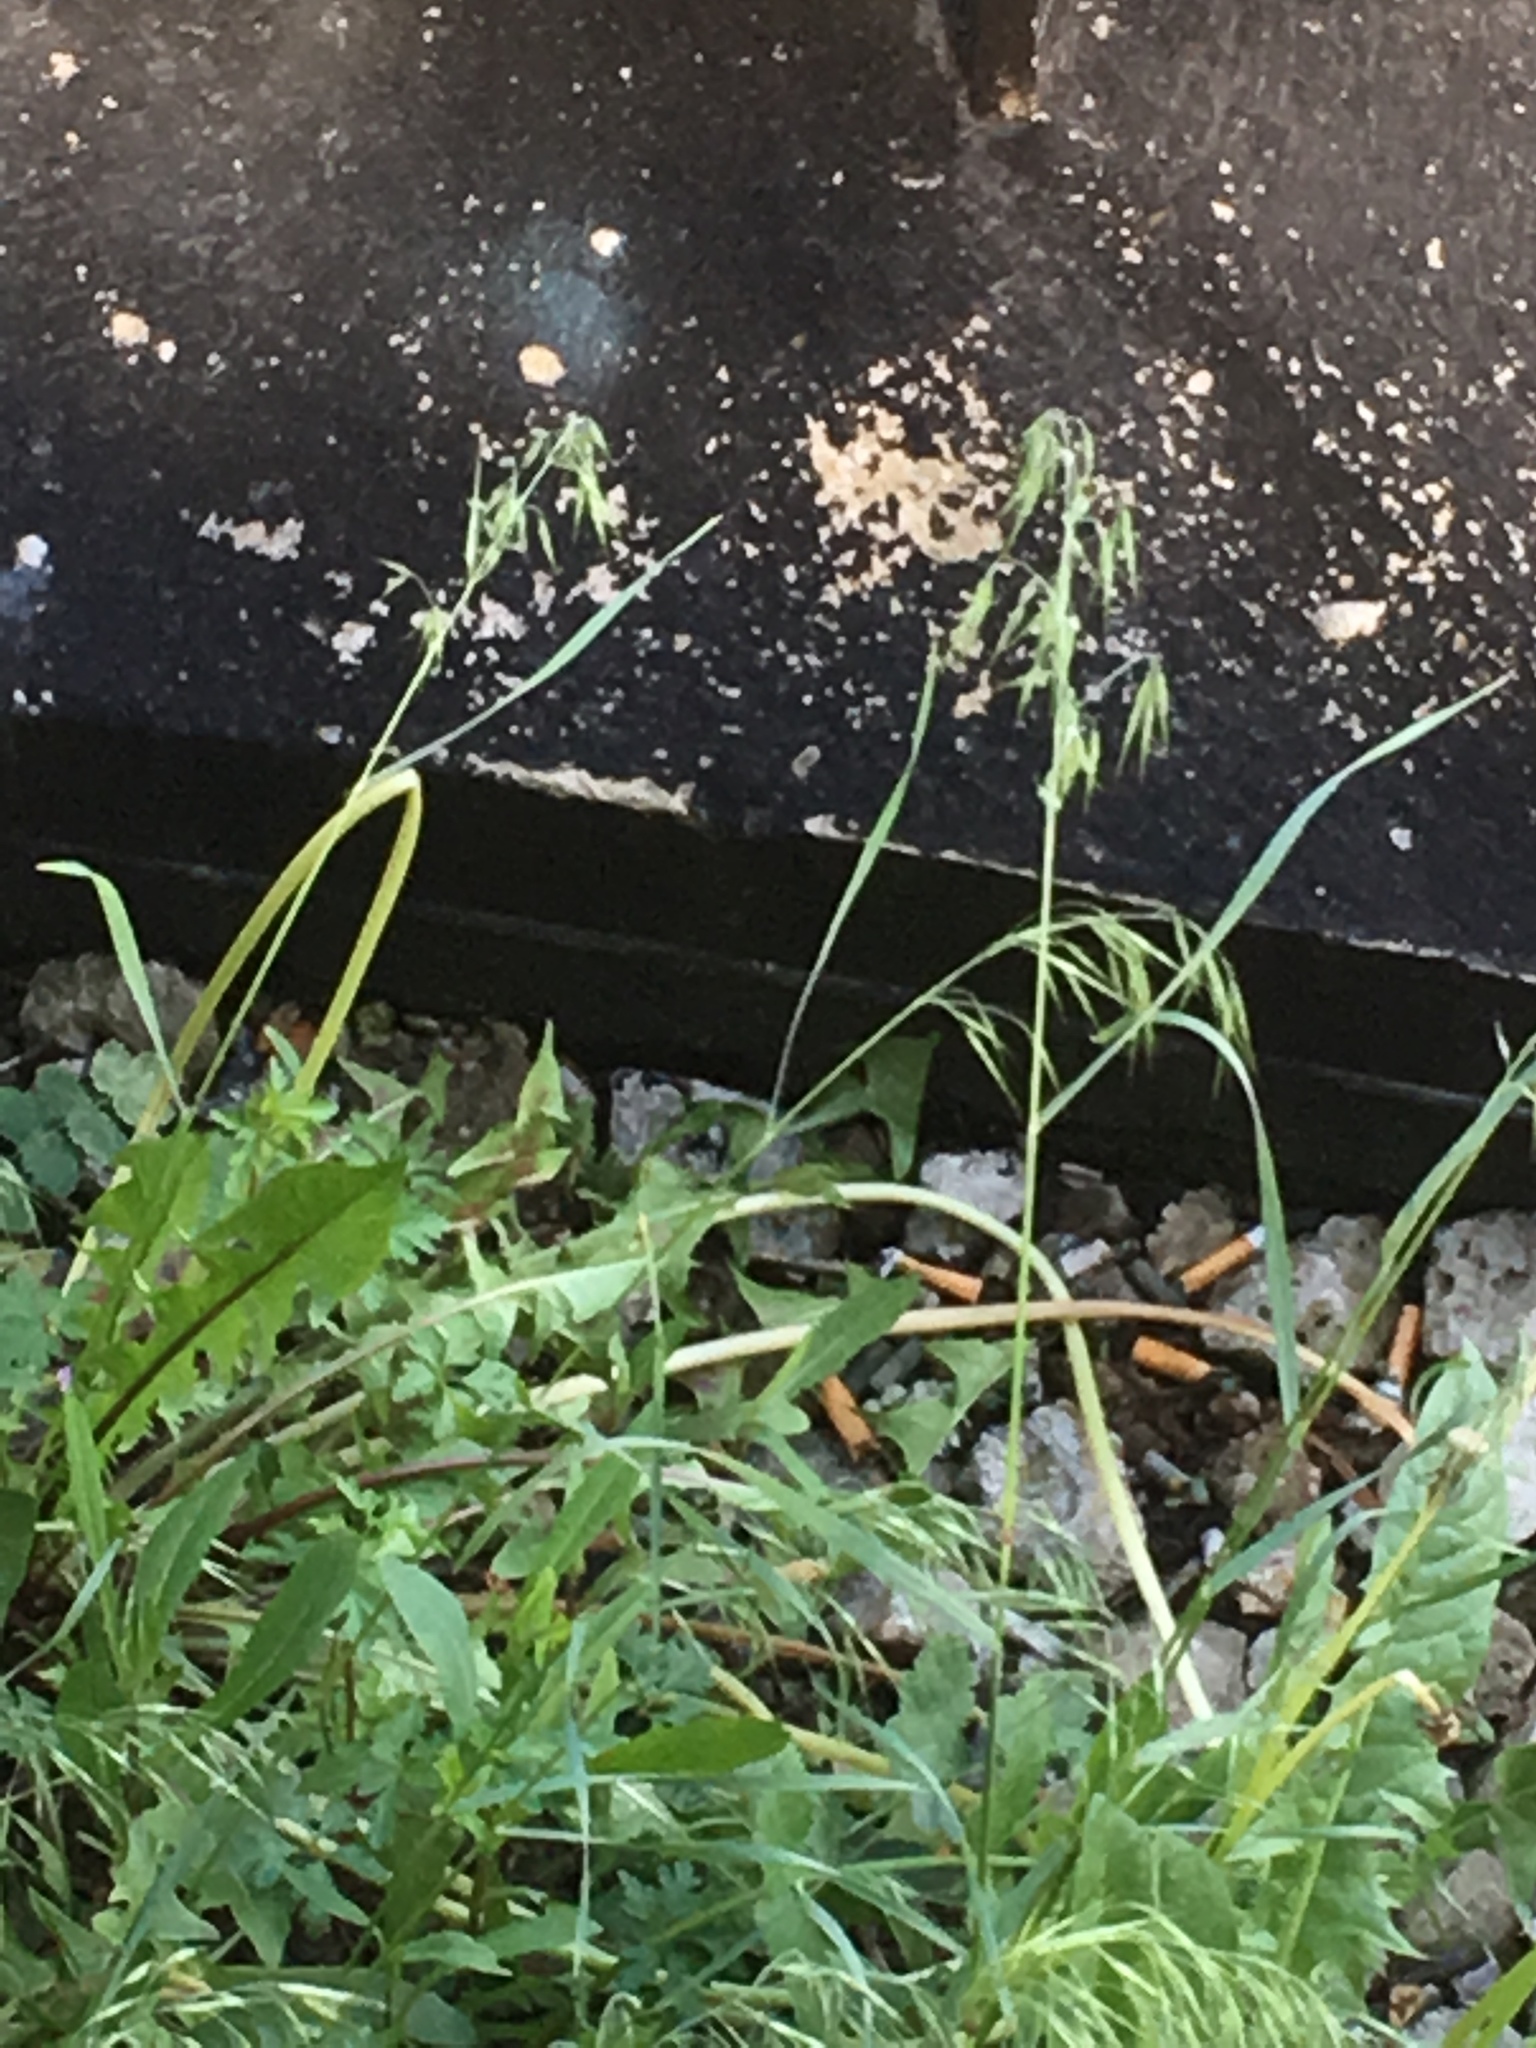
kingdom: Plantae
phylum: Tracheophyta
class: Liliopsida
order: Poales
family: Poaceae
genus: Bromus
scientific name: Bromus tectorum
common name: Cheatgrass
